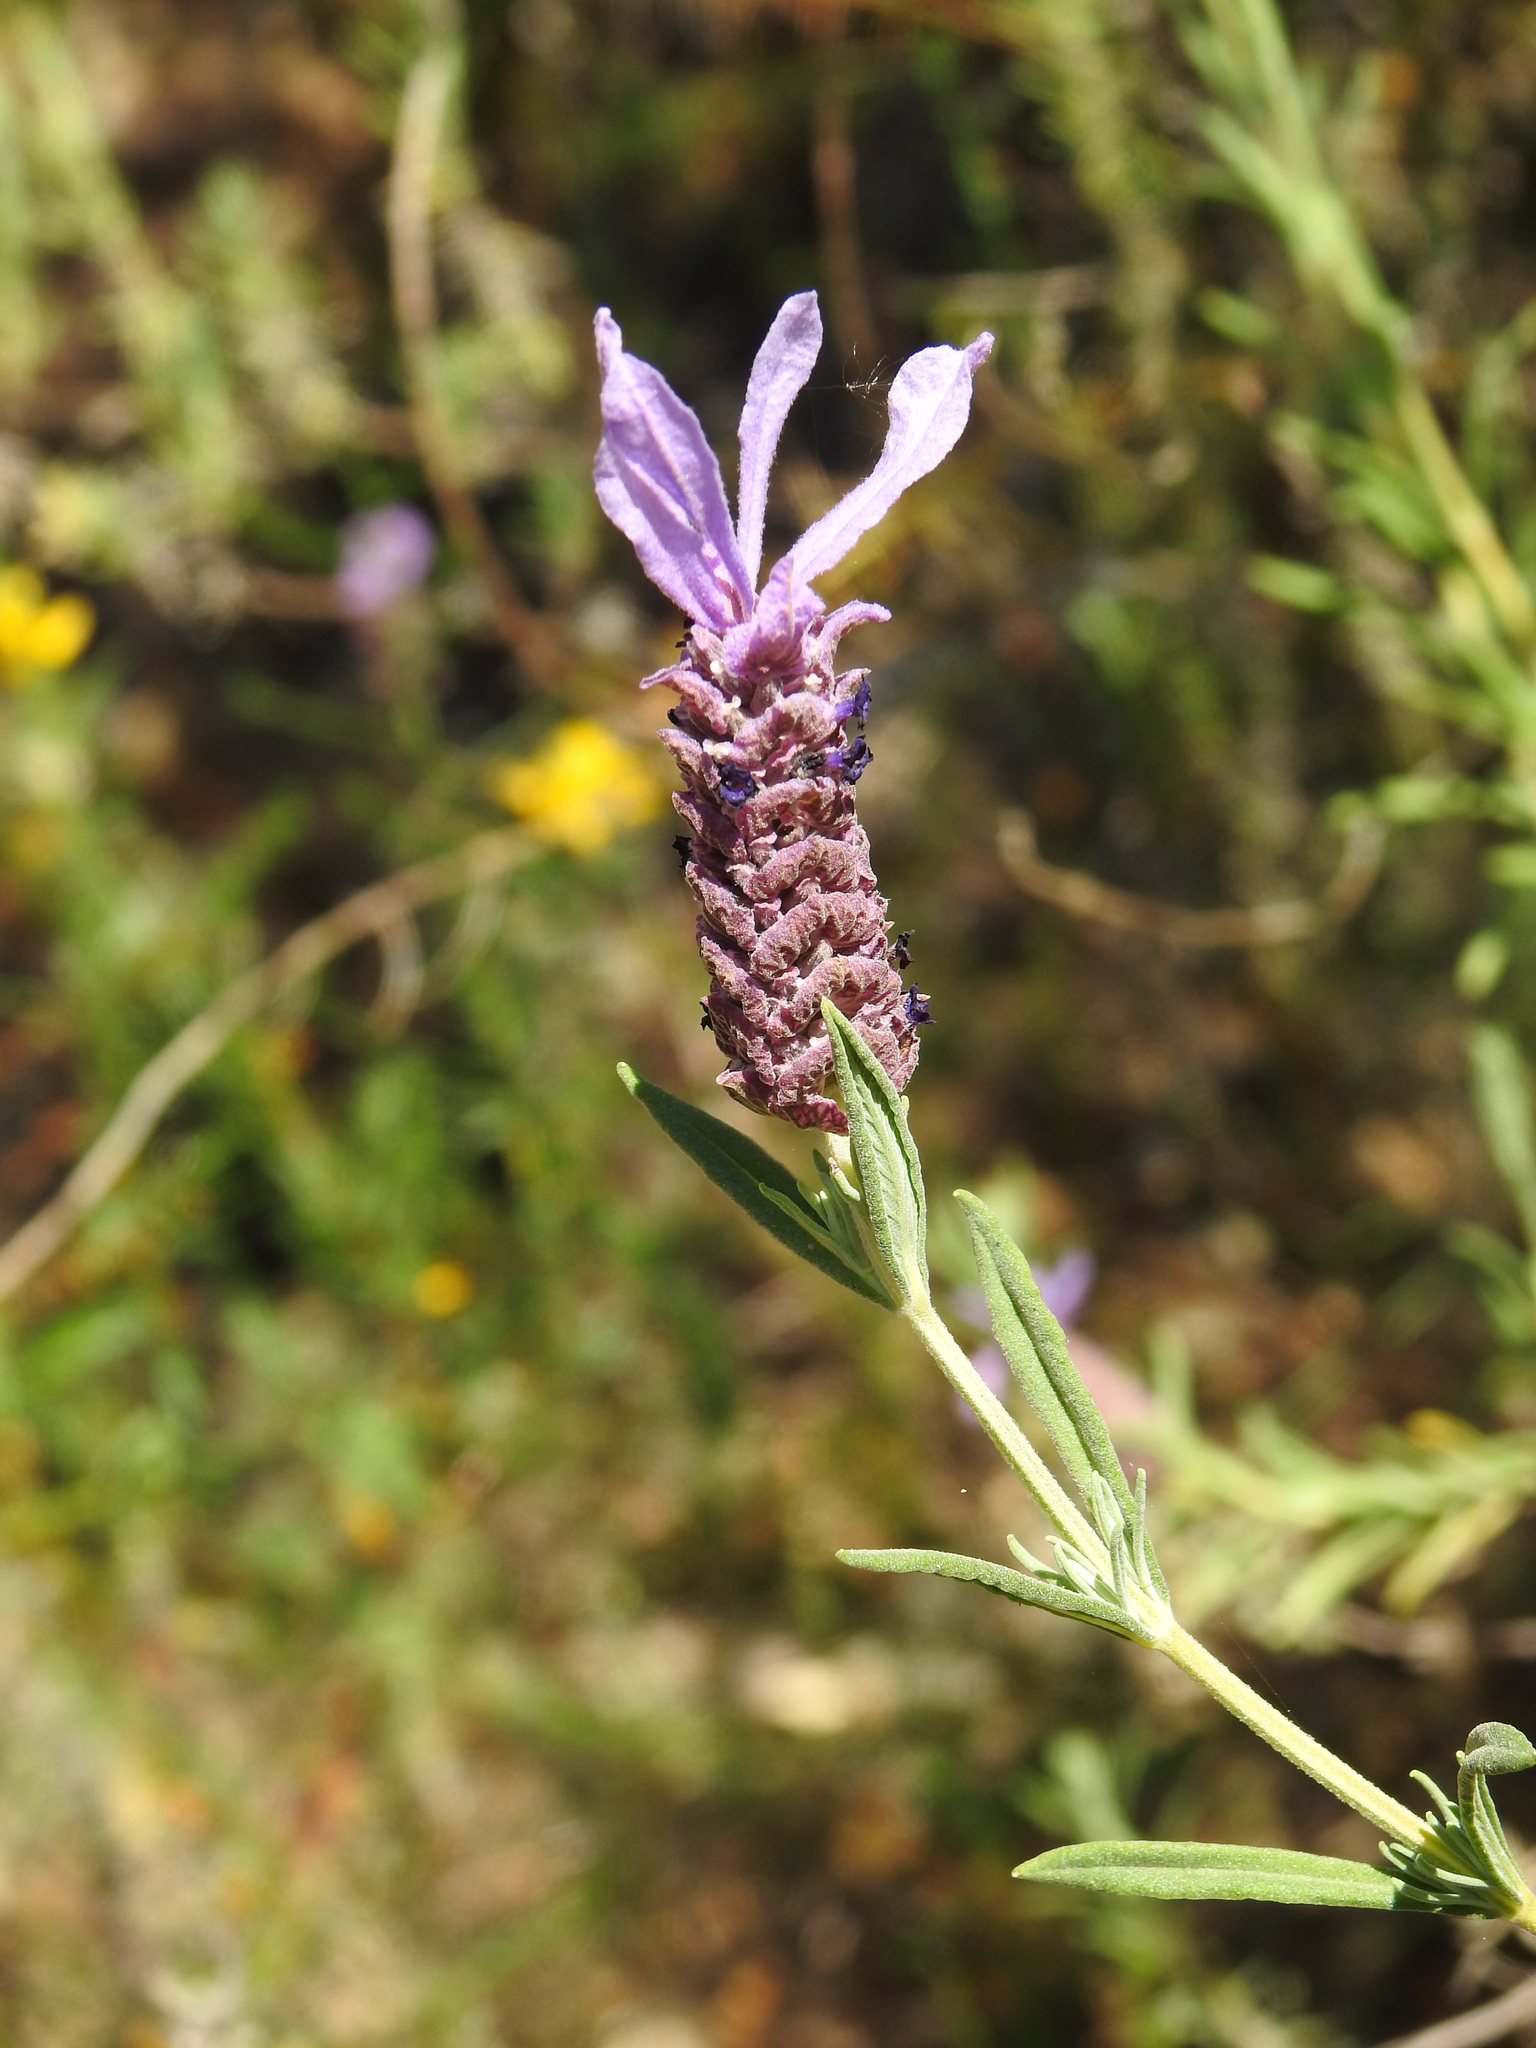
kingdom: Plantae
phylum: Tracheophyta
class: Magnoliopsida
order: Lamiales
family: Lamiaceae
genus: Lavandula
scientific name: Lavandula stoechas
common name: French lavender
